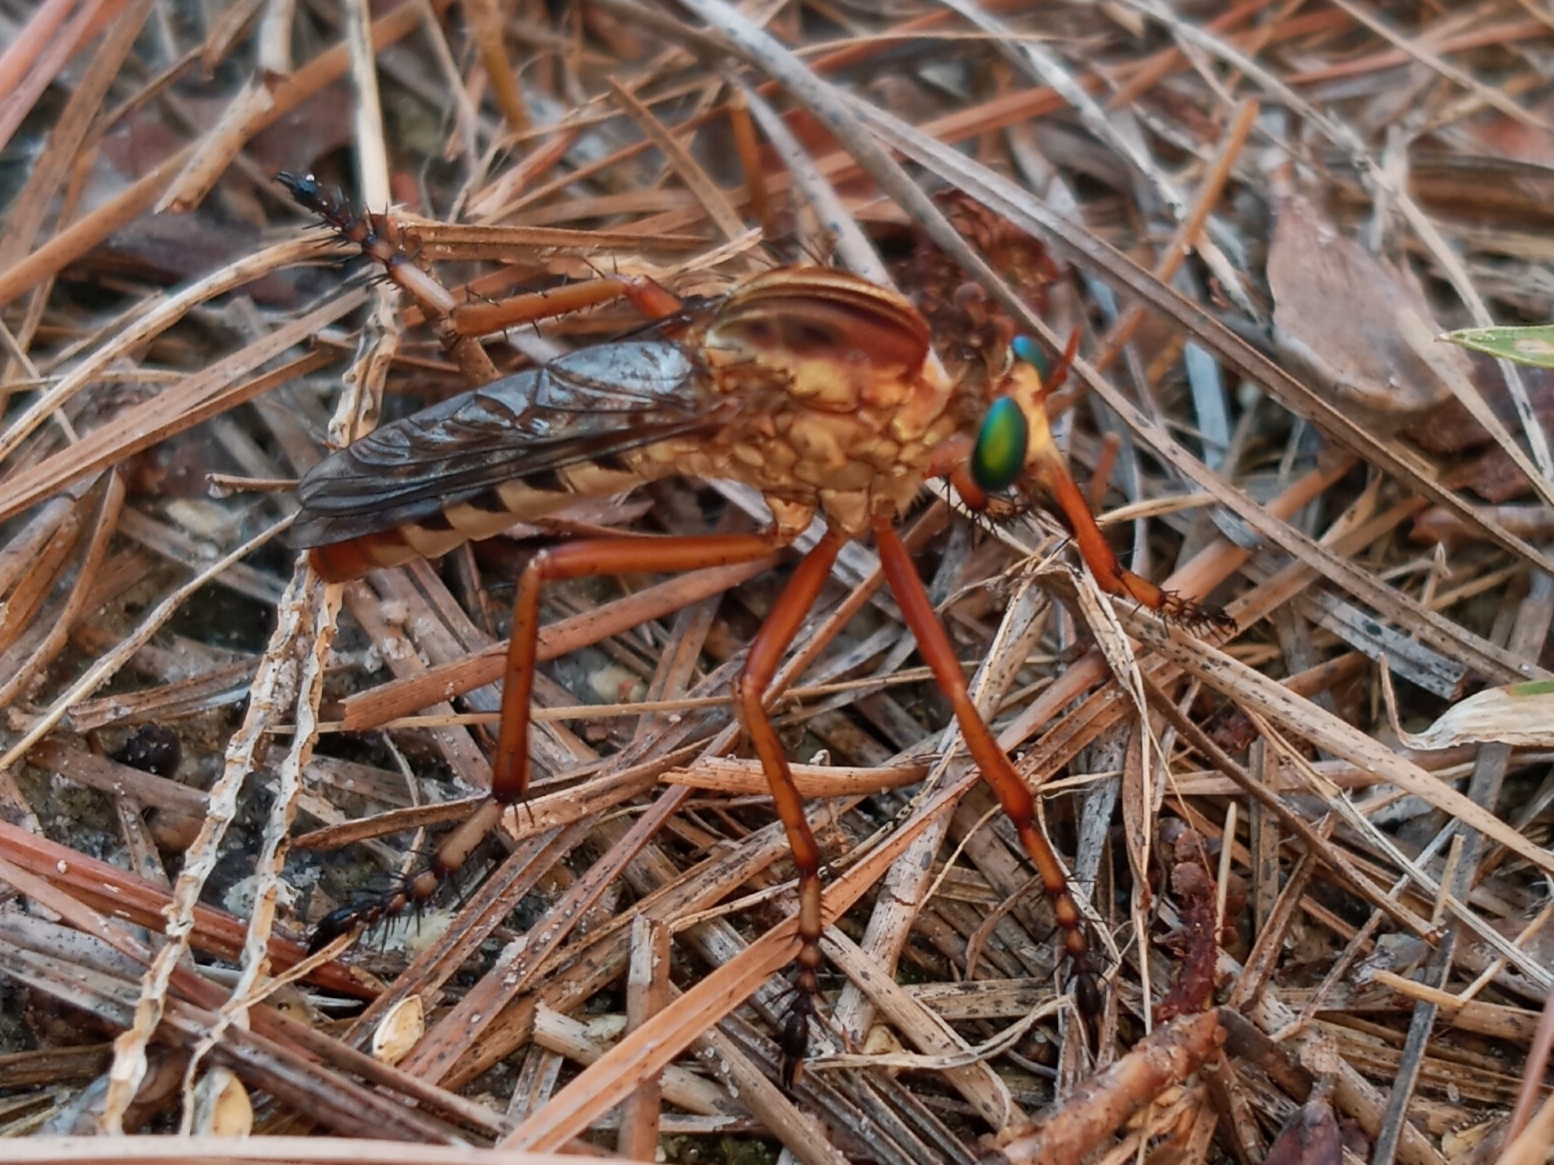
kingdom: Animalia
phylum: Arthropoda
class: Insecta
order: Diptera
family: Asilidae
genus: Diogmites
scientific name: Diogmites crudelis
